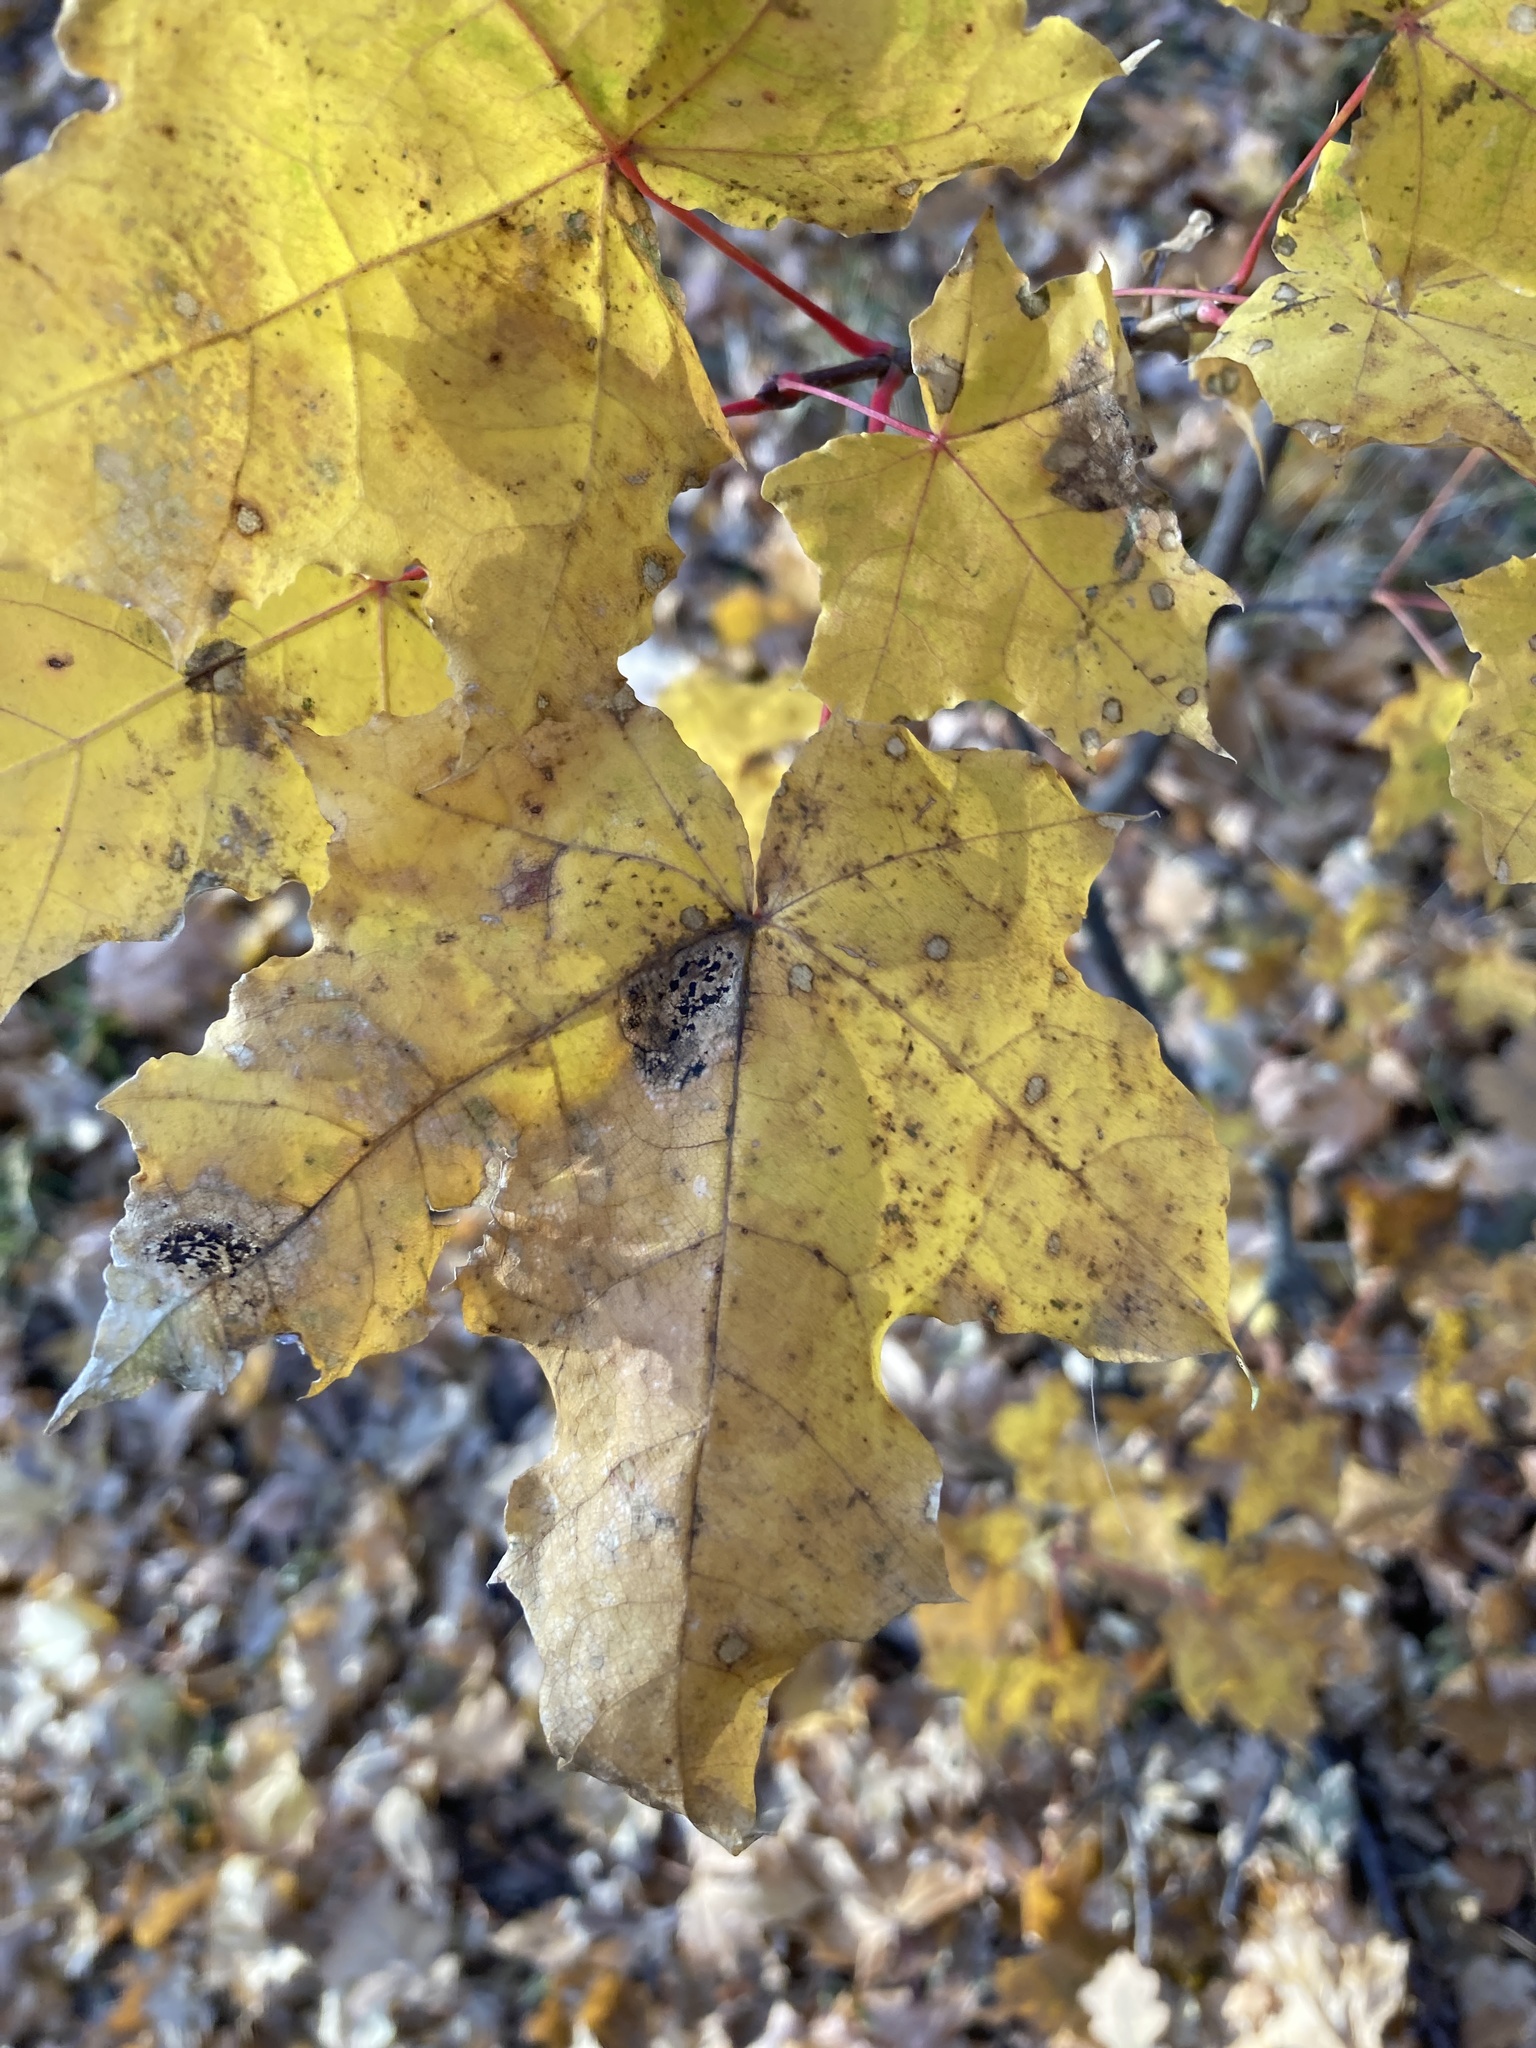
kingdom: Plantae
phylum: Tracheophyta
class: Magnoliopsida
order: Sapindales
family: Sapindaceae
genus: Acer
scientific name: Acer platanoides
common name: Norway maple
